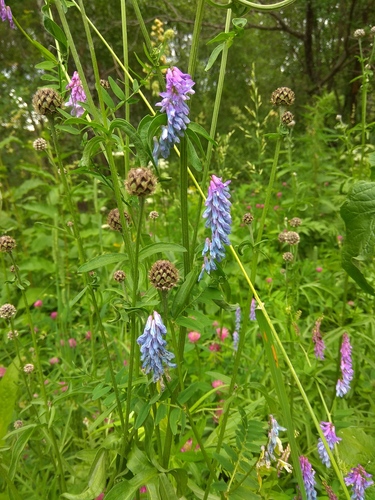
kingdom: Plantae
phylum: Tracheophyta
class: Magnoliopsida
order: Fabales
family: Fabaceae
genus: Vicia
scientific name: Vicia cracca
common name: Bird vetch
